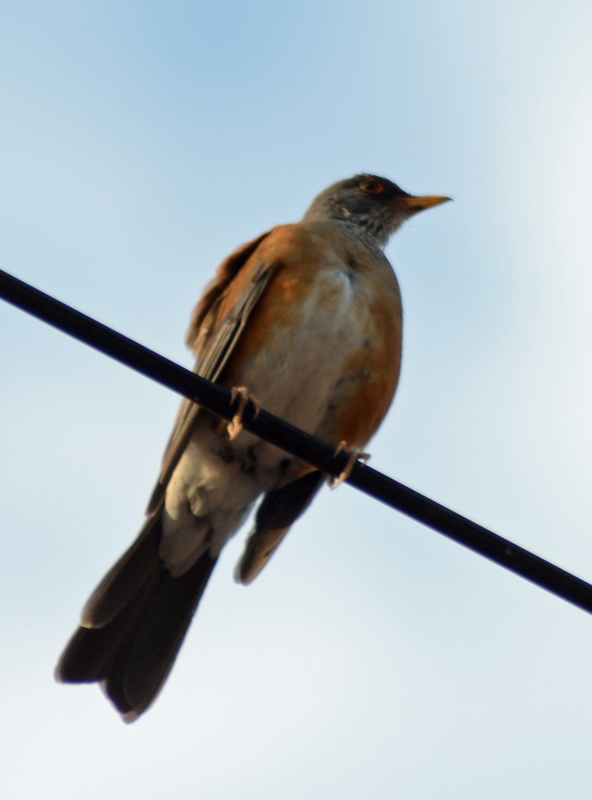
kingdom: Animalia
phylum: Chordata
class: Aves
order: Passeriformes
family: Turdidae
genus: Turdus
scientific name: Turdus rufopalliatus
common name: Rufous-backed robin
